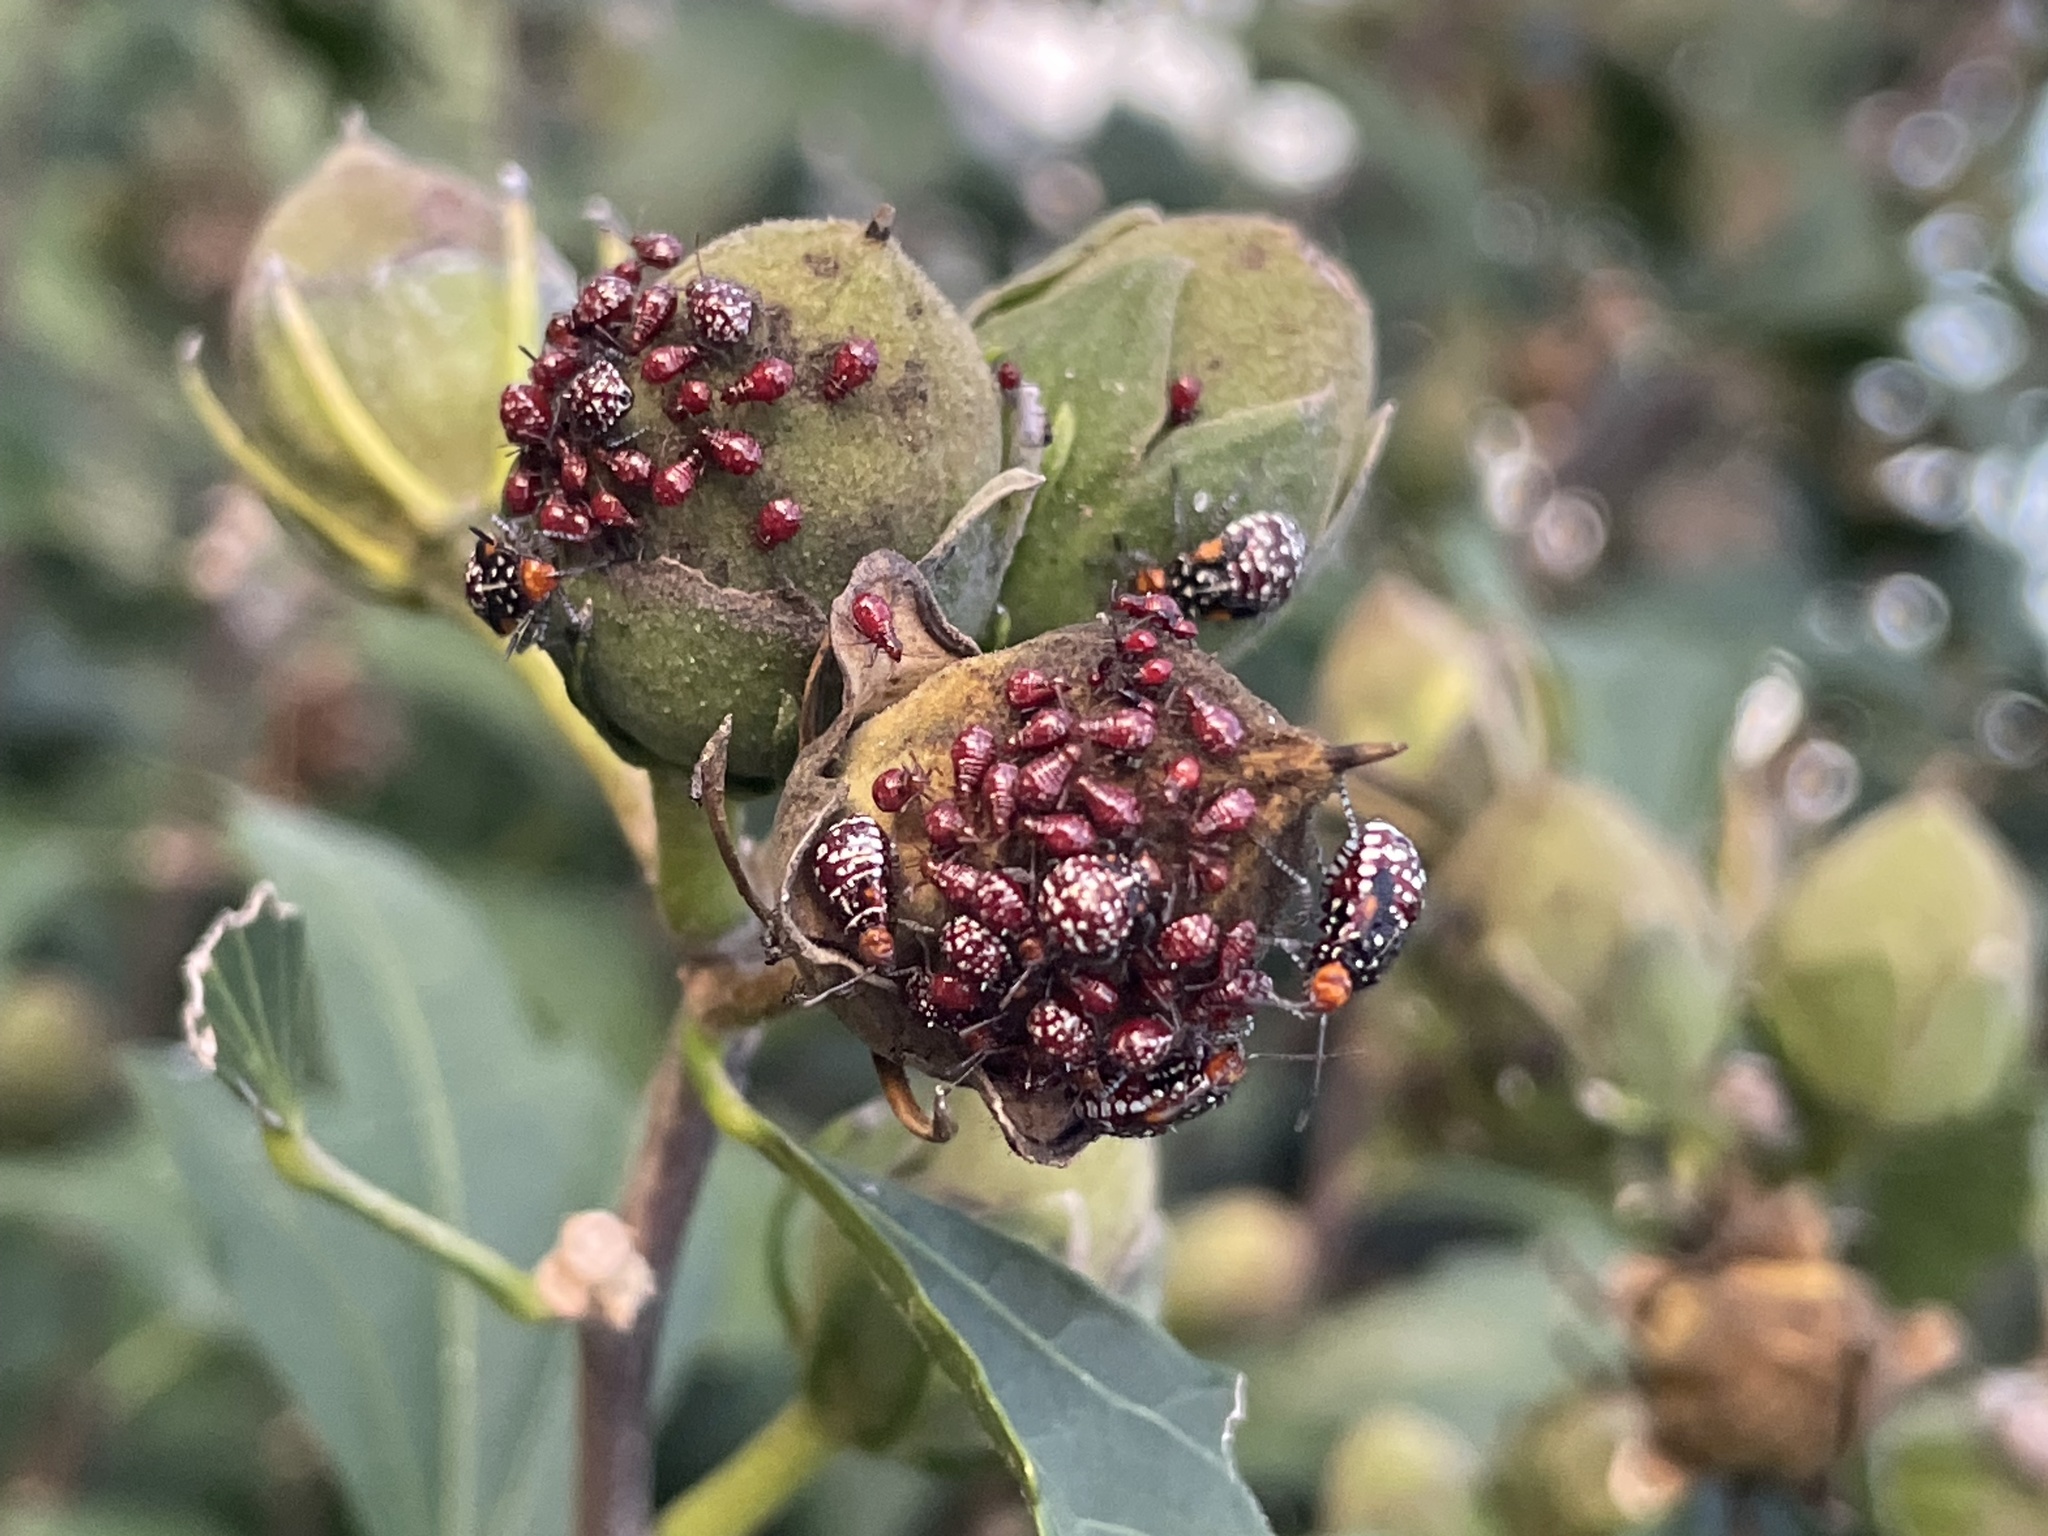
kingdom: Animalia
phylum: Arthropoda
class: Insecta
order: Hemiptera
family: Rhopalidae
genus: Niesthrea
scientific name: Niesthrea louisianica
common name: Scentless plant bug
